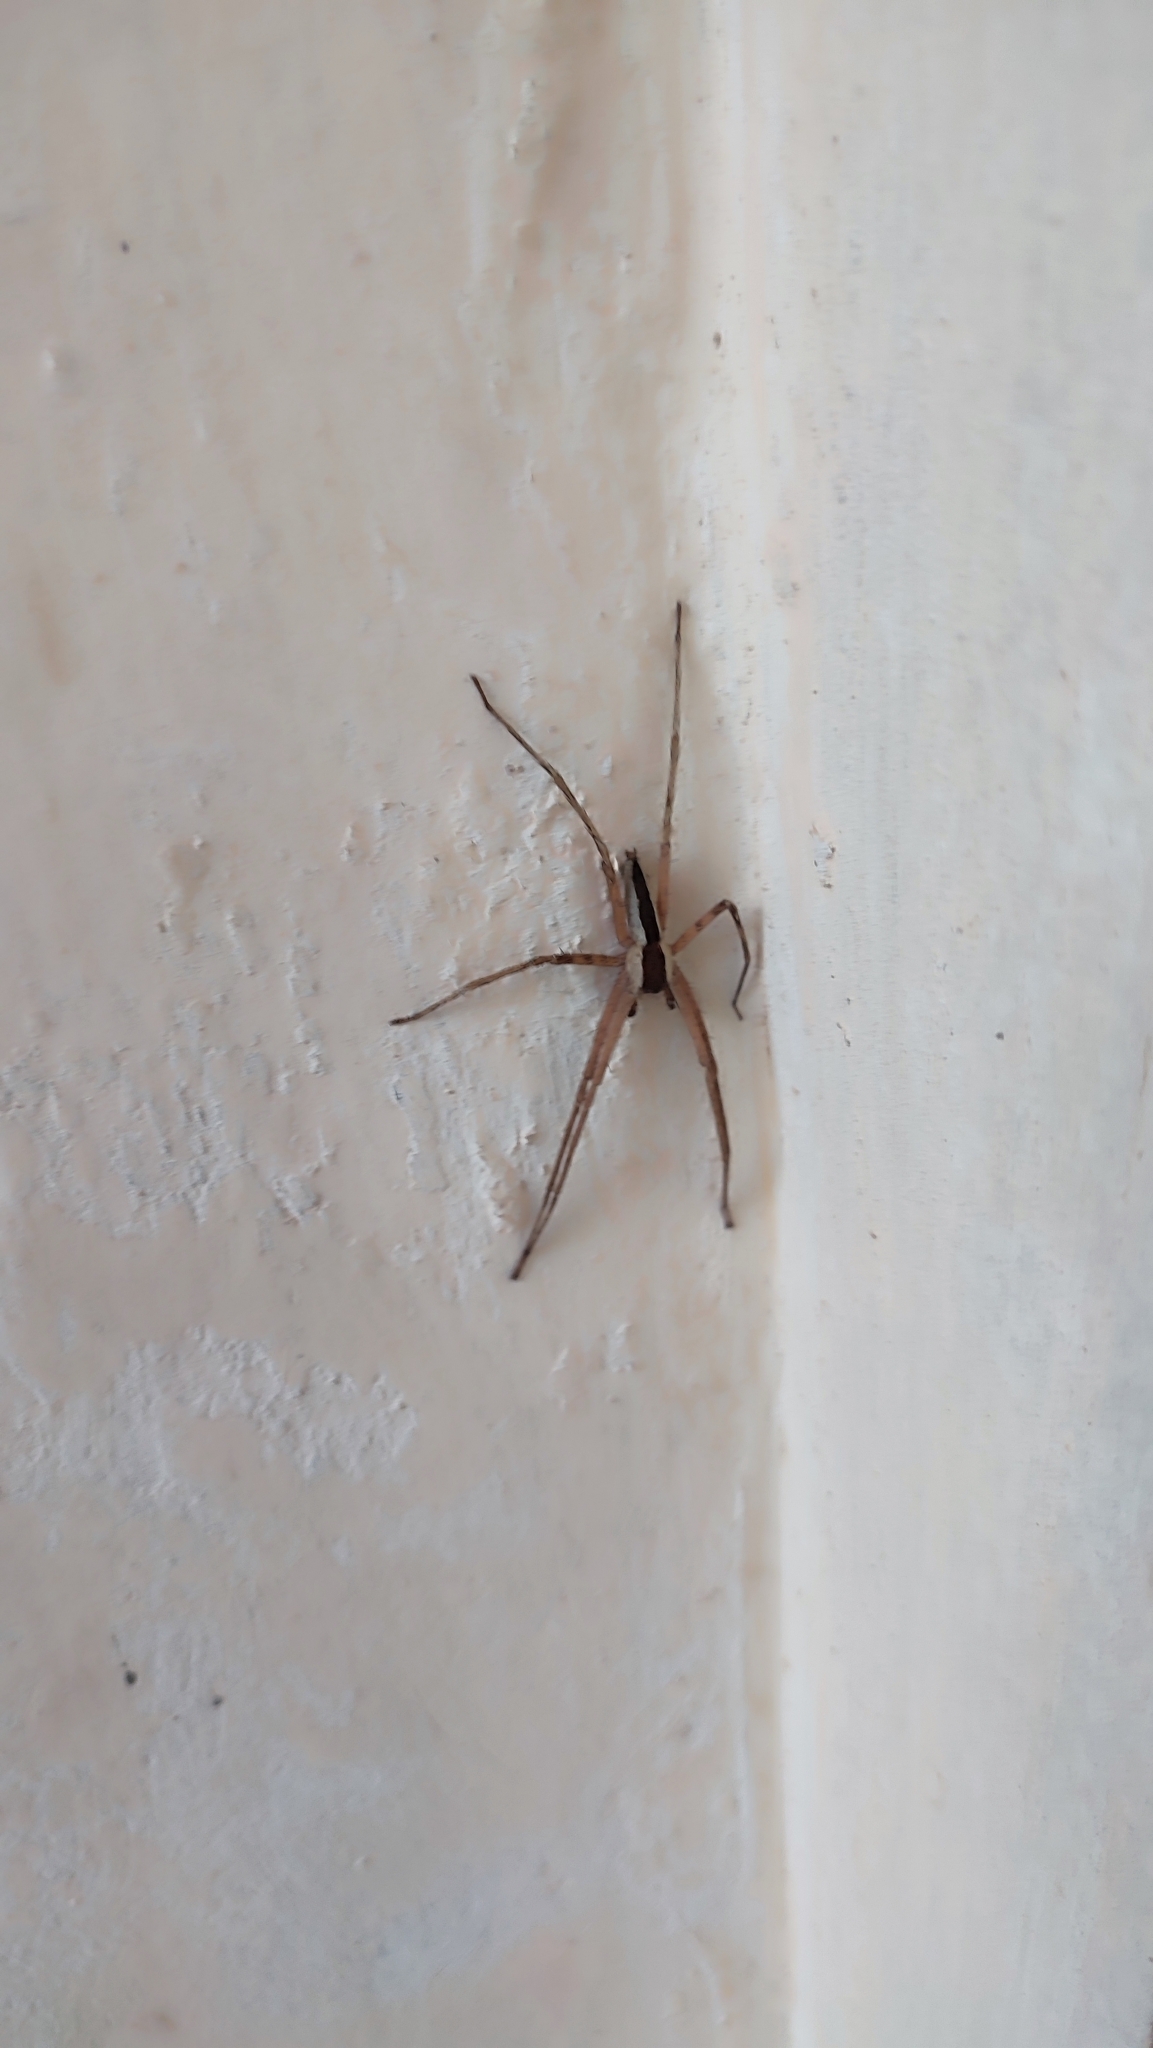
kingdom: Animalia
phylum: Arthropoda
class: Arachnida
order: Araneae
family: Sparassidae
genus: Heteropoda
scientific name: Heteropoda ocyalina
